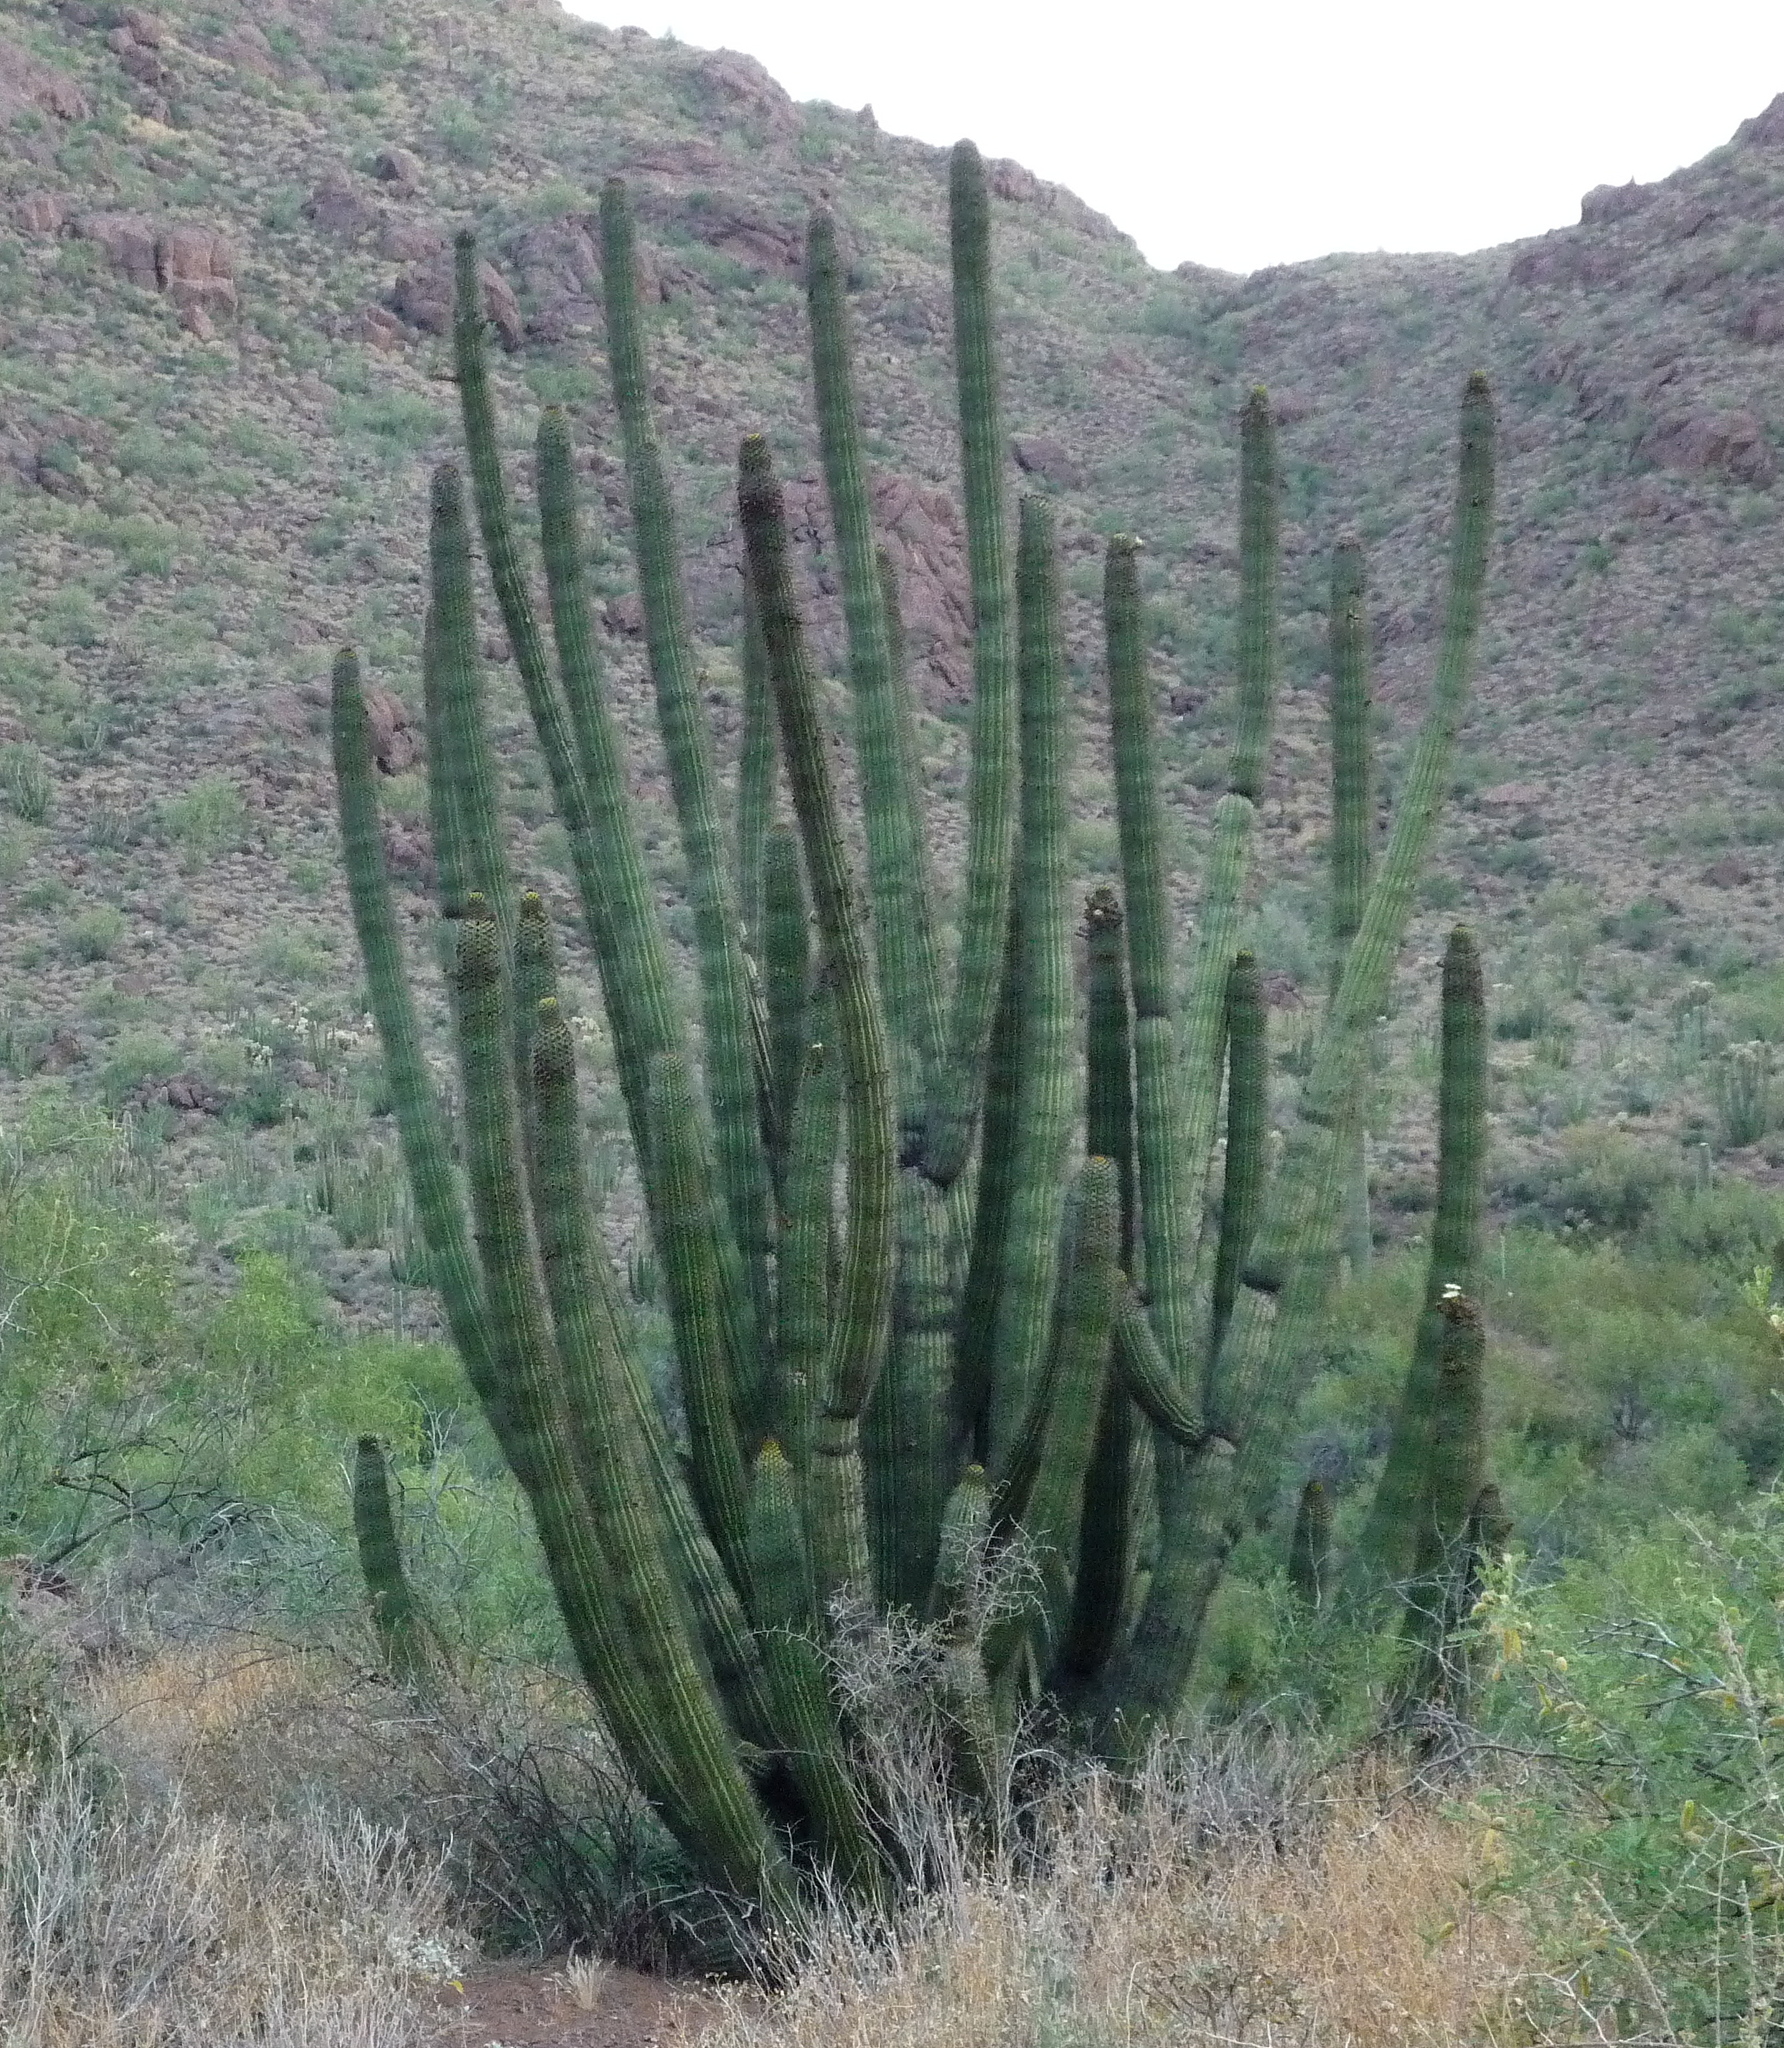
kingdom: Plantae
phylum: Tracheophyta
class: Magnoliopsida
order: Caryophyllales
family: Cactaceae
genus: Stenocereus
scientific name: Stenocereus thurberi
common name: Organ pipe cactus
